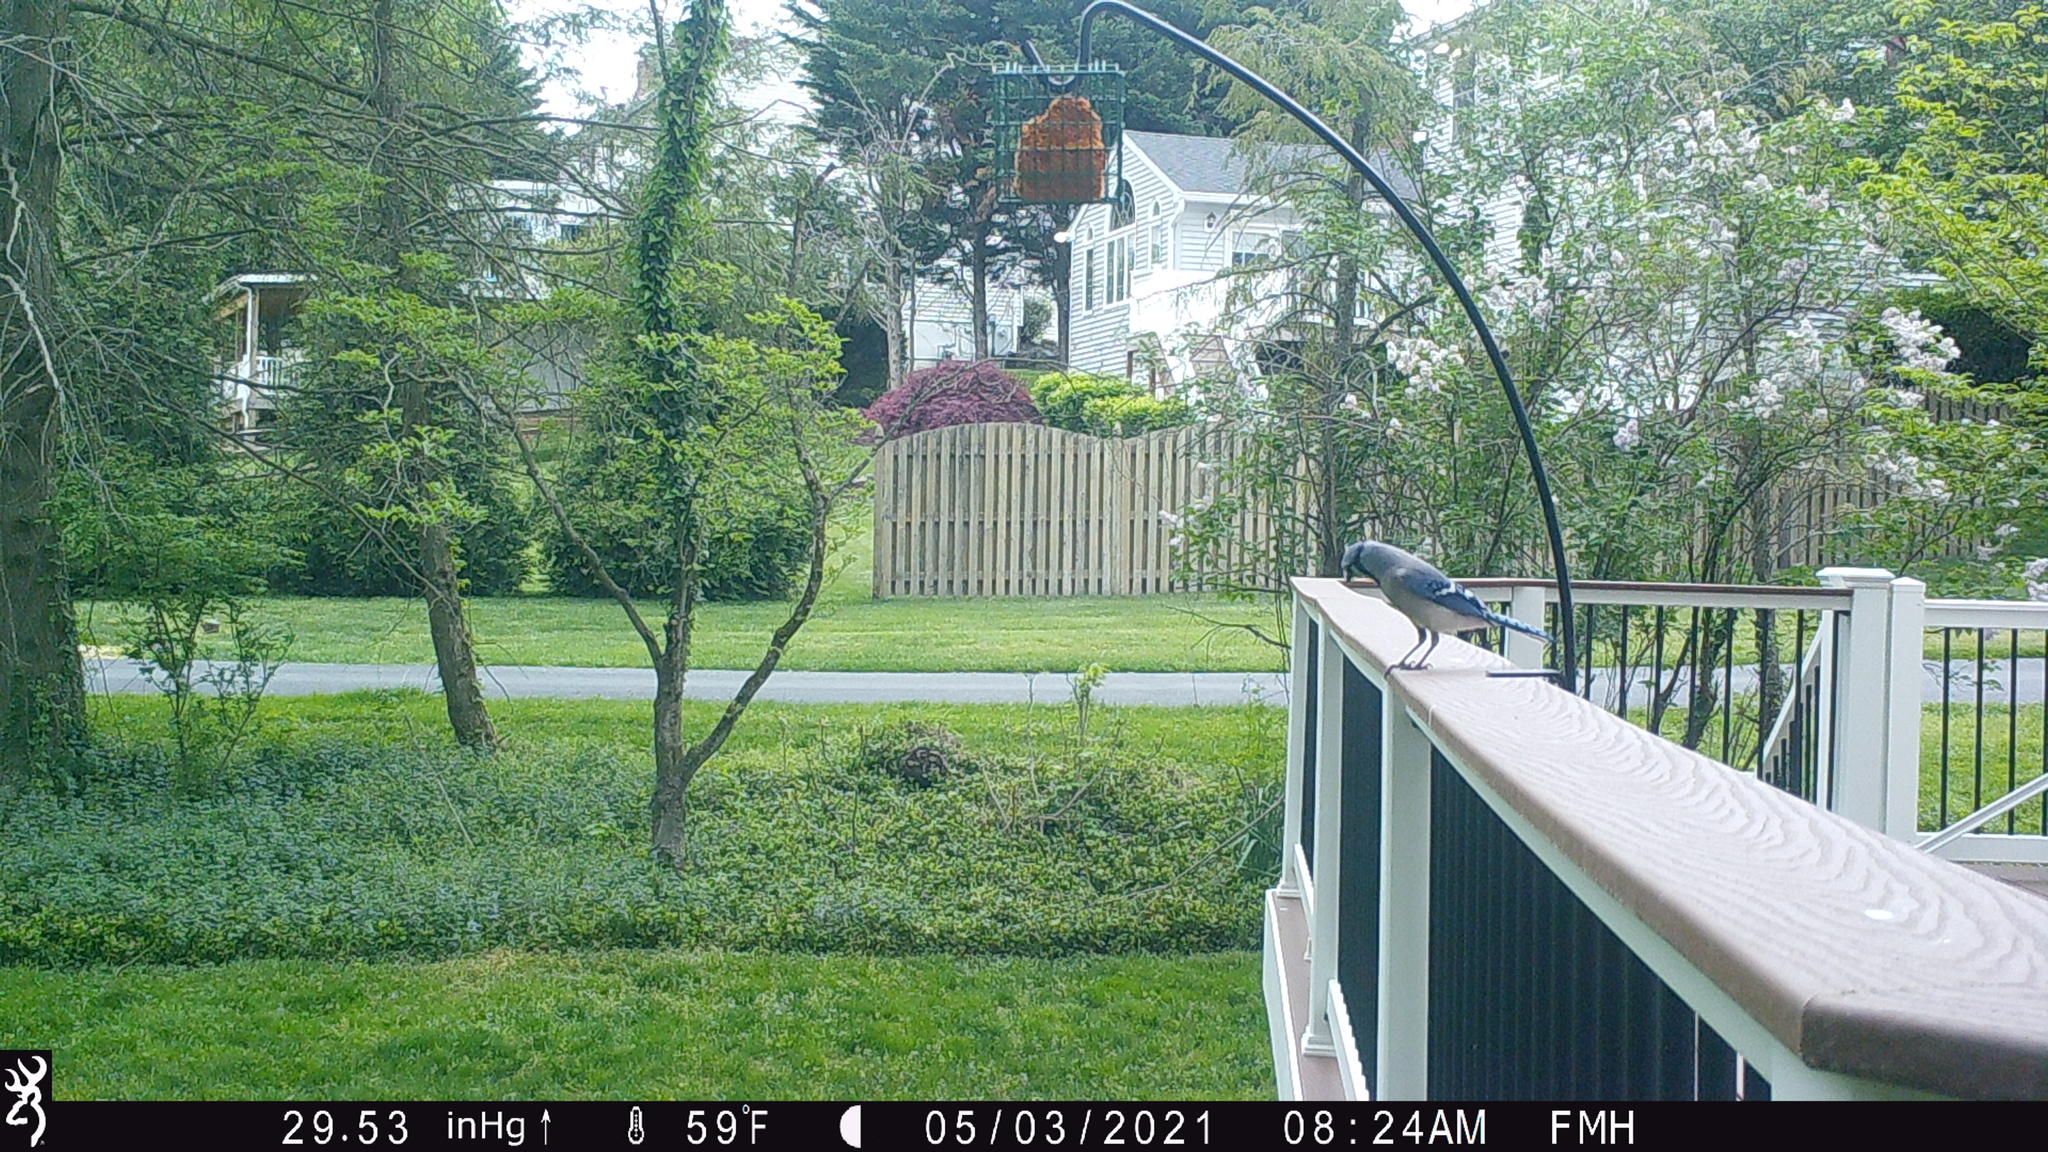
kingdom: Animalia
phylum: Chordata
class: Aves
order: Passeriformes
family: Corvidae
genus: Cyanocitta
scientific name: Cyanocitta cristata
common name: Blue jay
